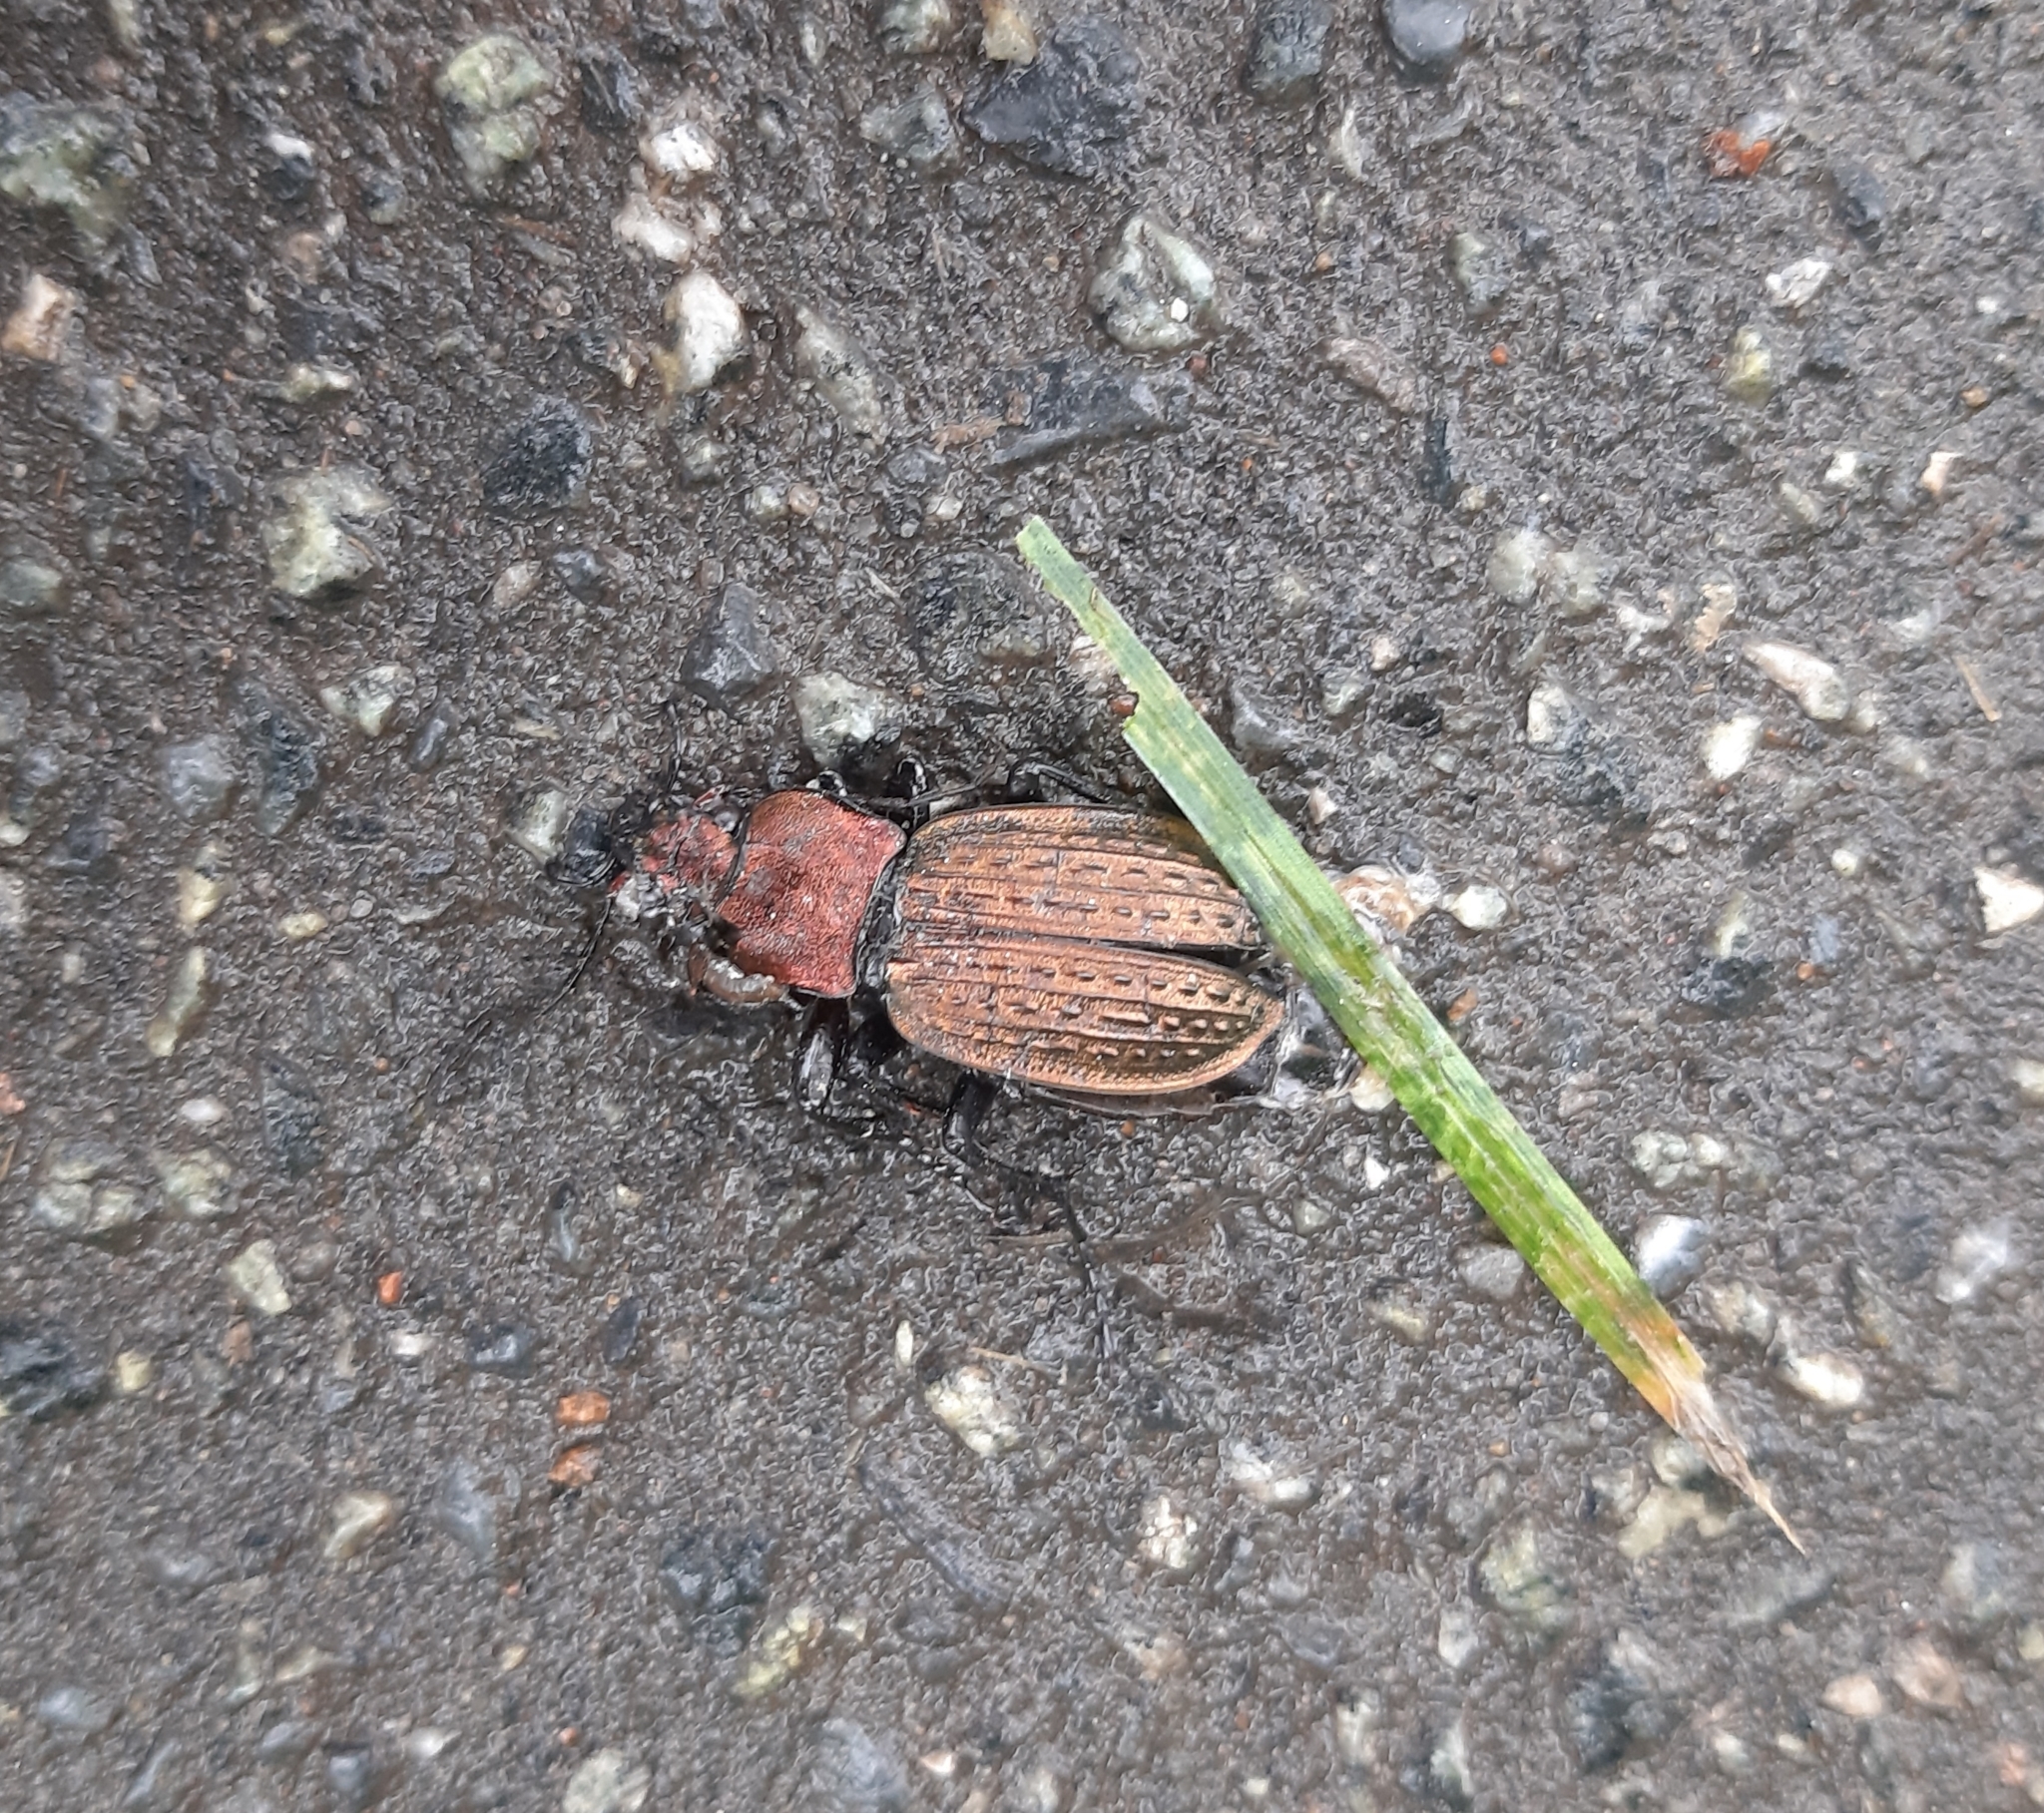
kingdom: Animalia
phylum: Arthropoda
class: Insecta
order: Coleoptera
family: Carabidae
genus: Carabus
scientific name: Carabus cancellatus
